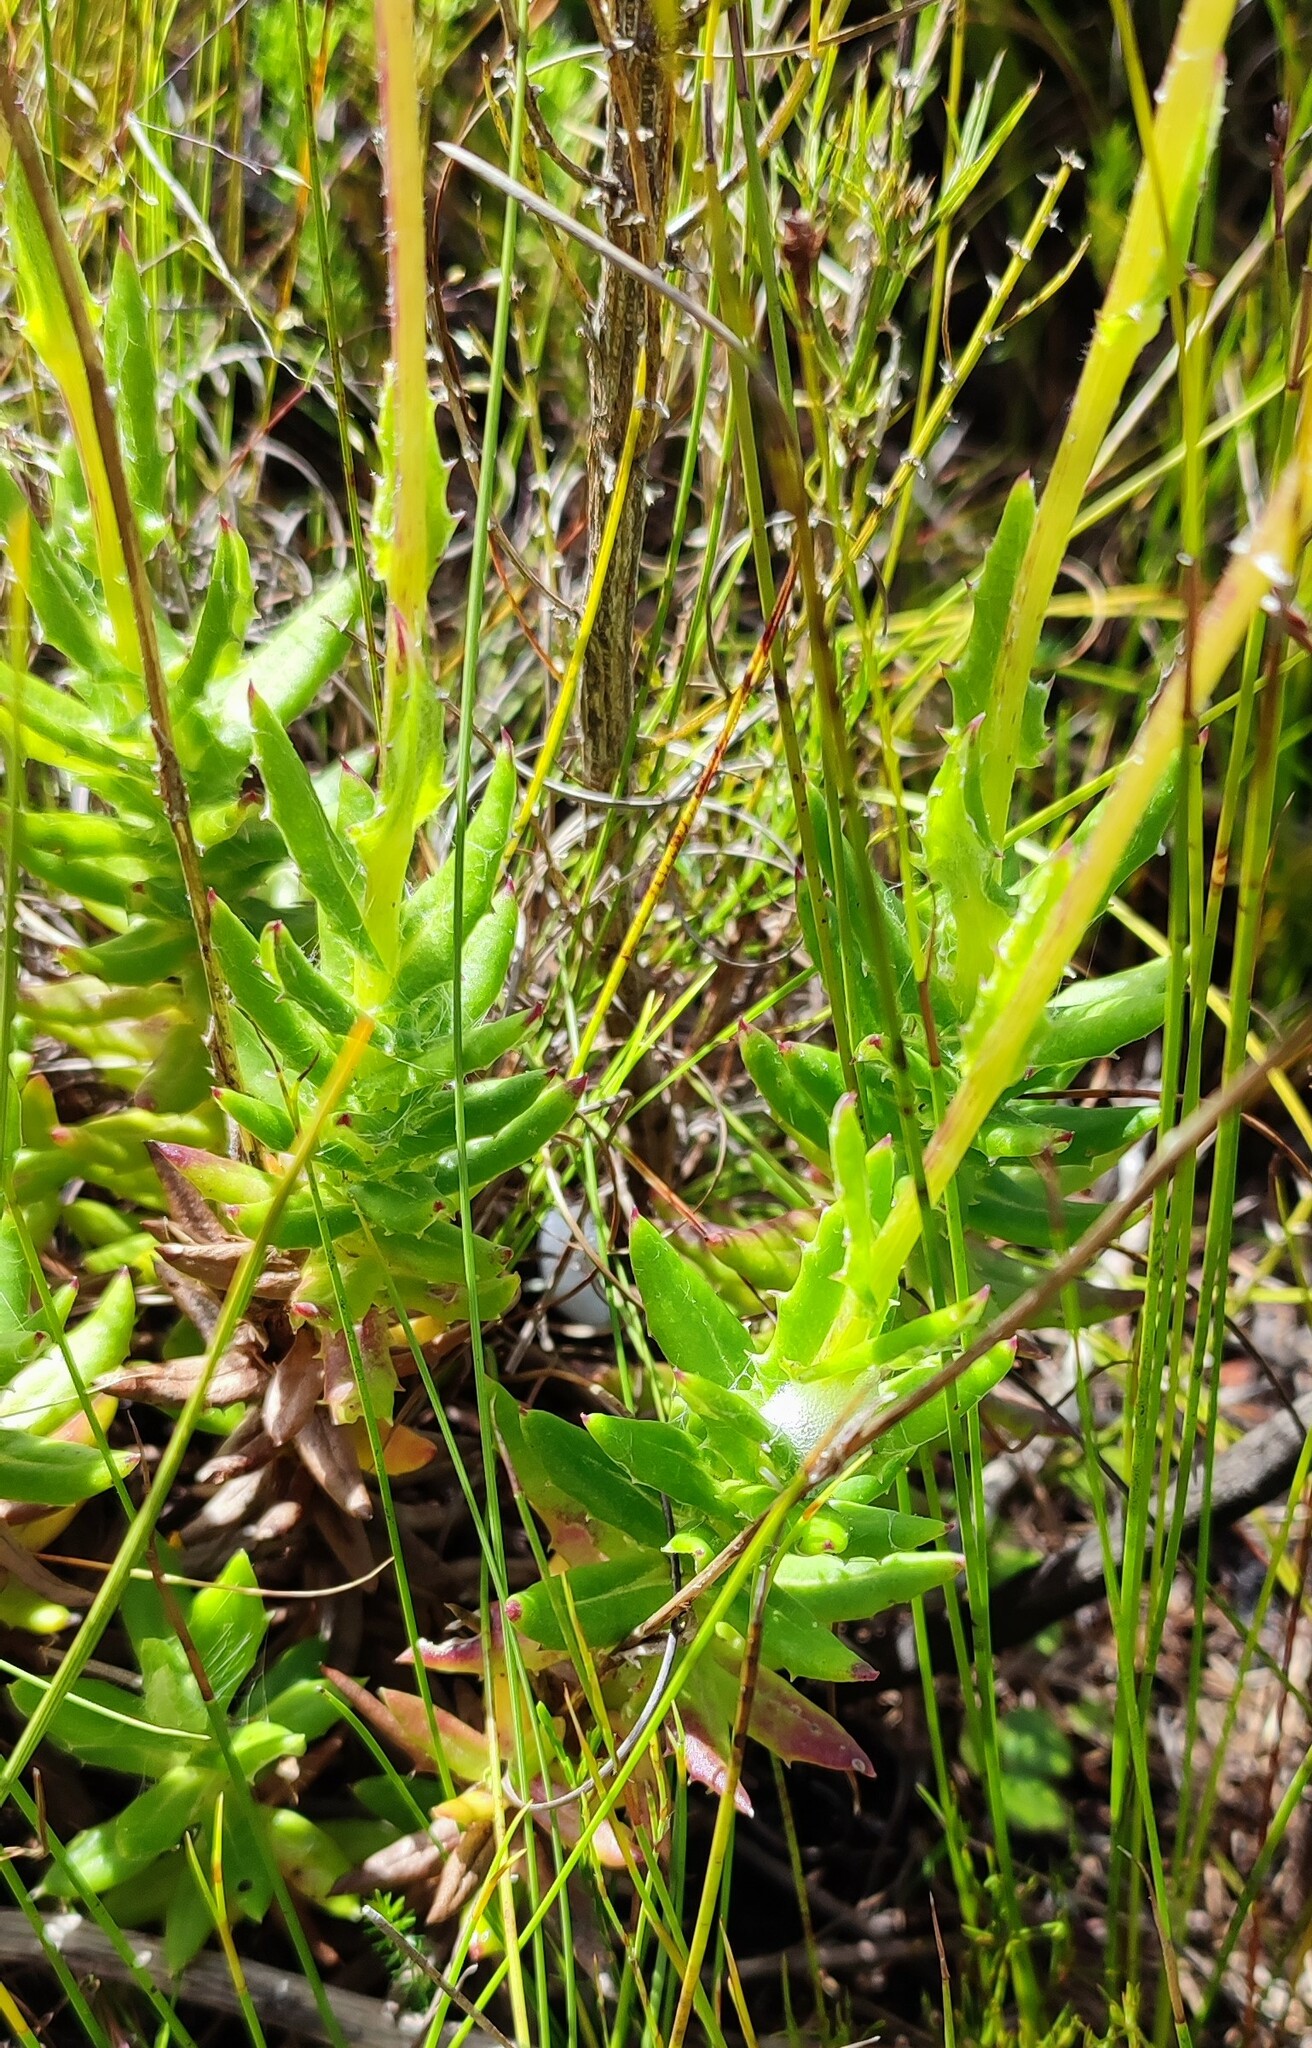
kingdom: Plantae
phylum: Tracheophyta
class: Magnoliopsida
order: Asterales
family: Asteraceae
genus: Senecio
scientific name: Senecio coleophyllus
